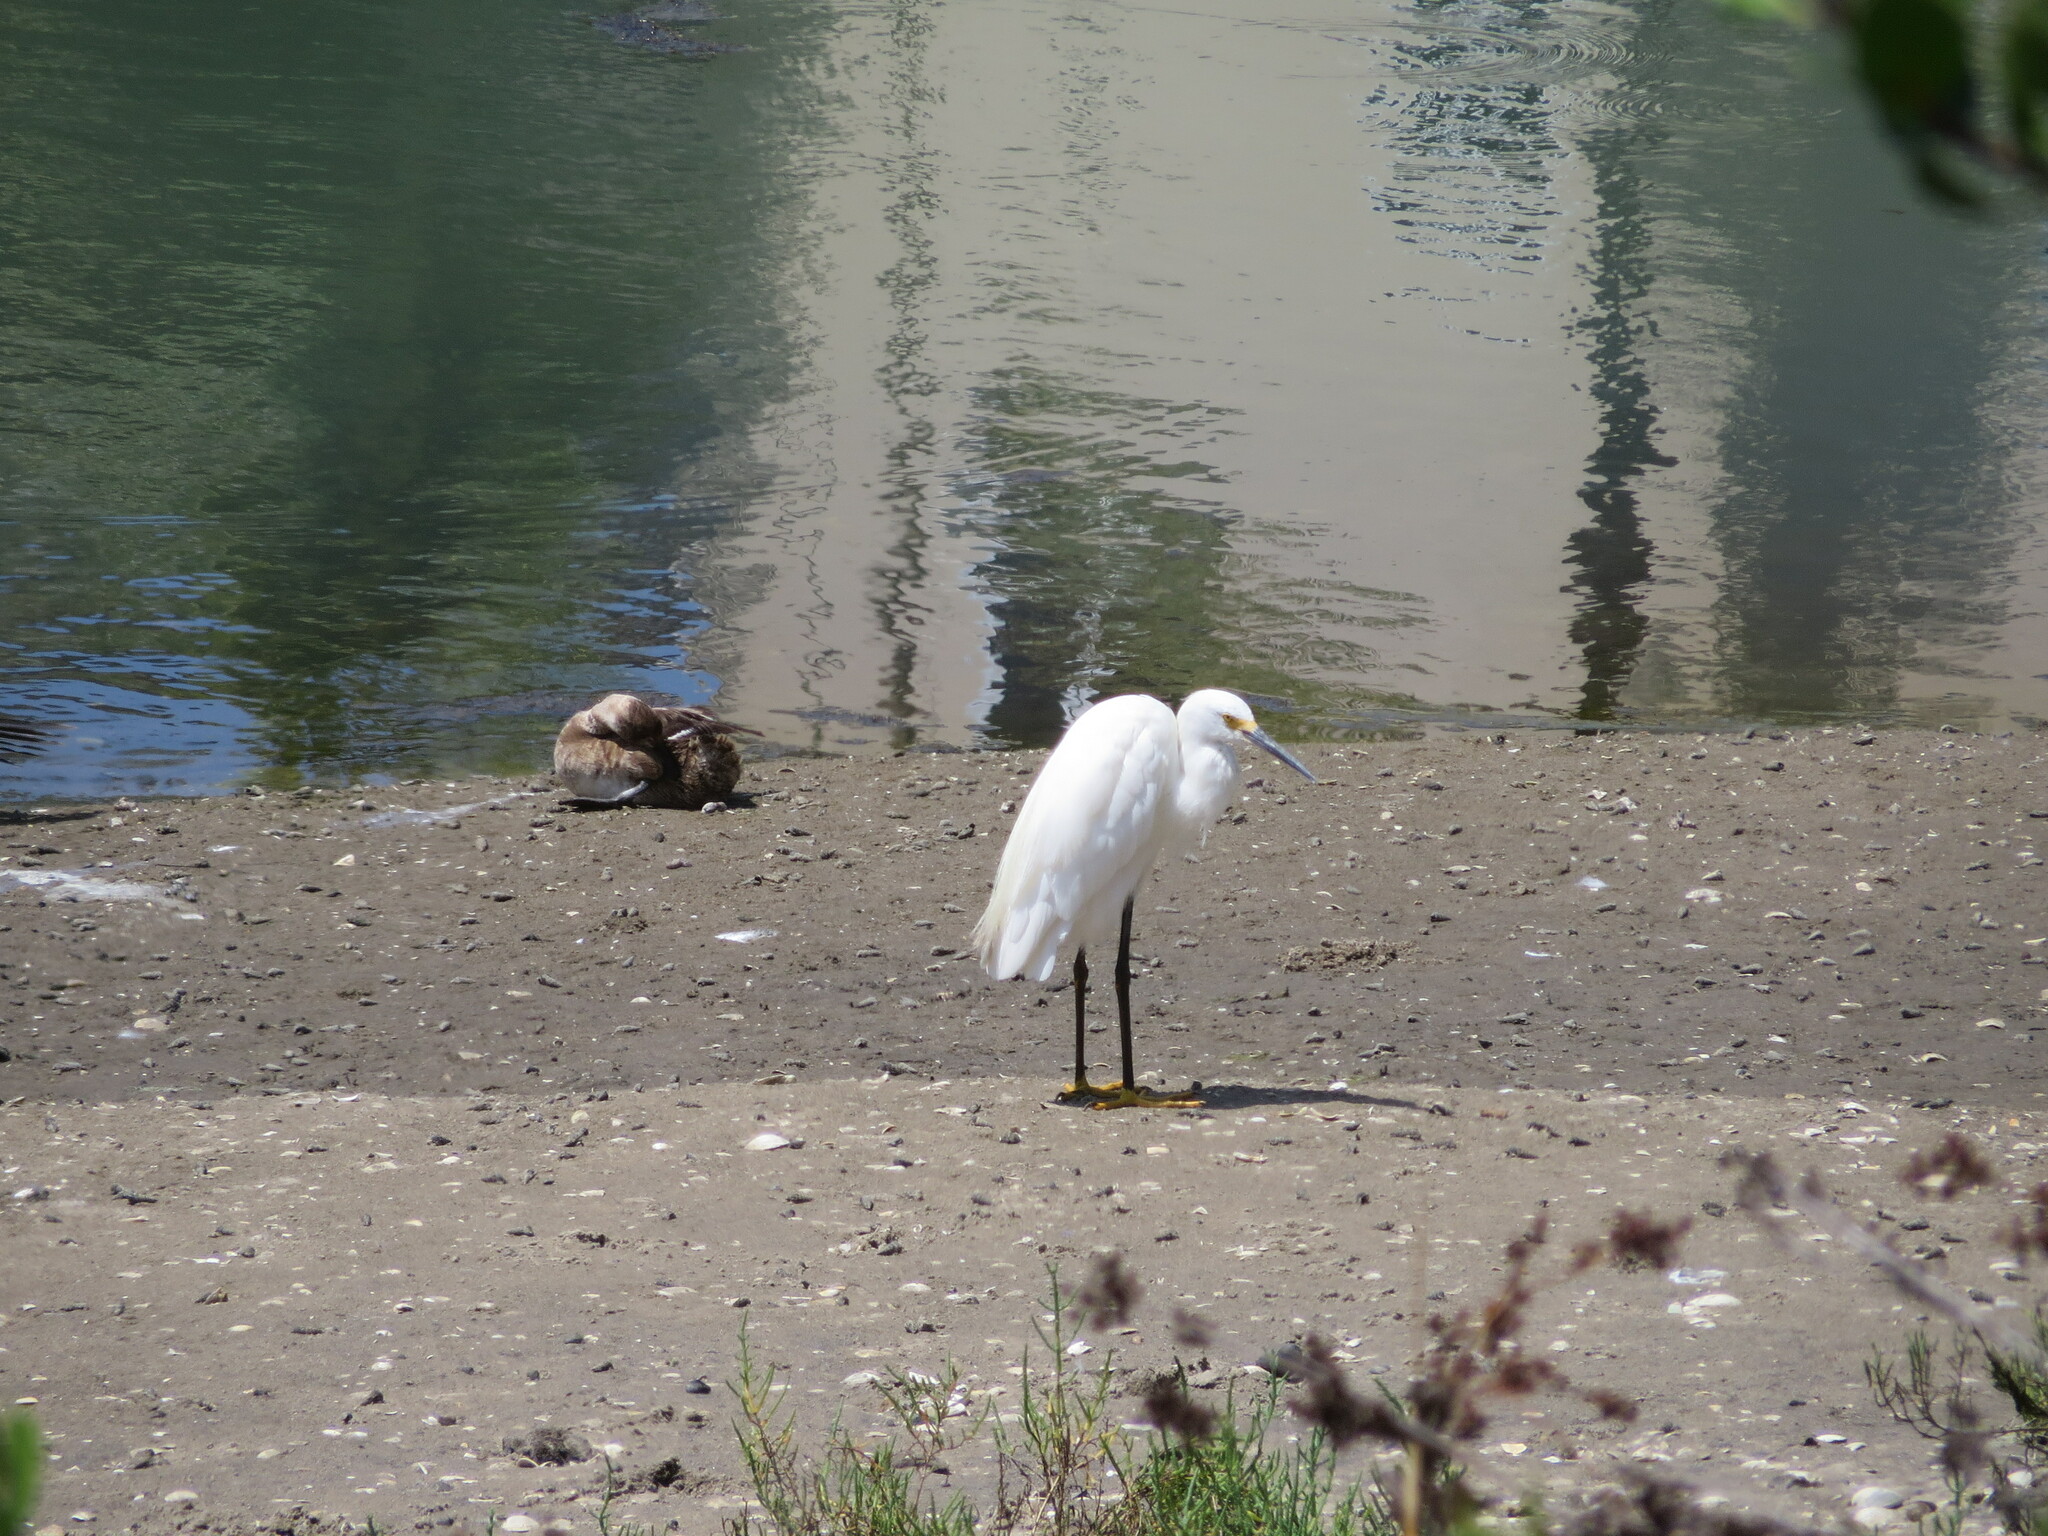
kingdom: Animalia
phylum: Chordata
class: Aves
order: Pelecaniformes
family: Ardeidae
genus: Egretta
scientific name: Egretta thula
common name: Snowy egret
